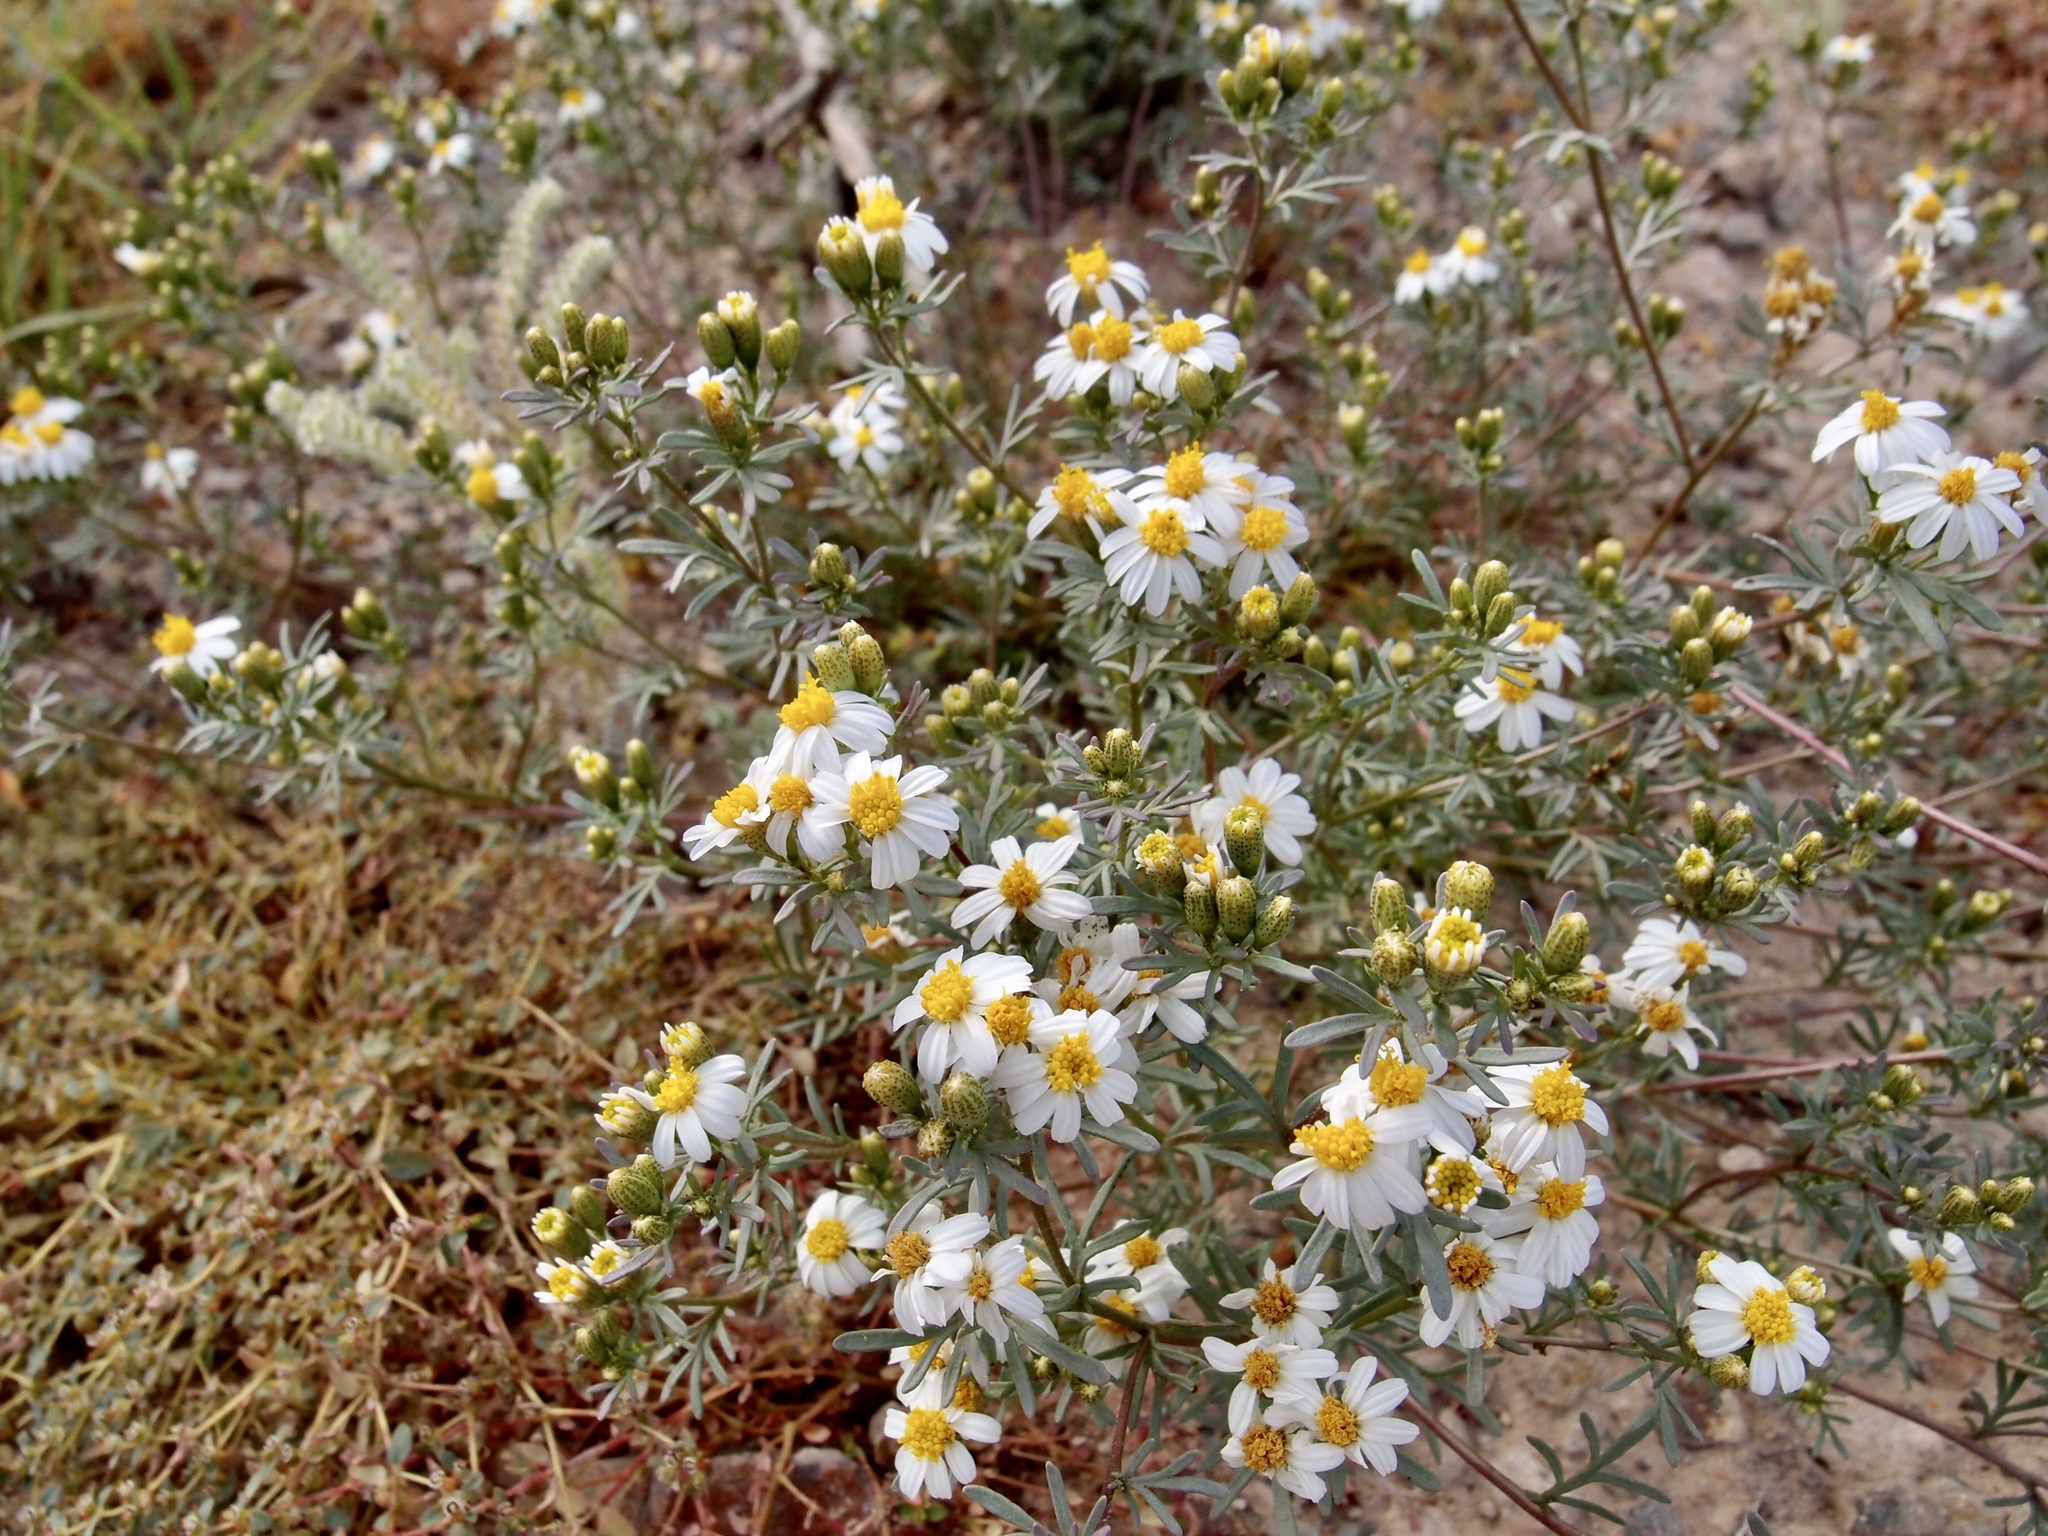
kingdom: Plantae
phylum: Tracheophyta
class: Magnoliopsida
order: Asterales
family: Asteraceae
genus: Thymophylla
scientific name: Thymophylla concinna
